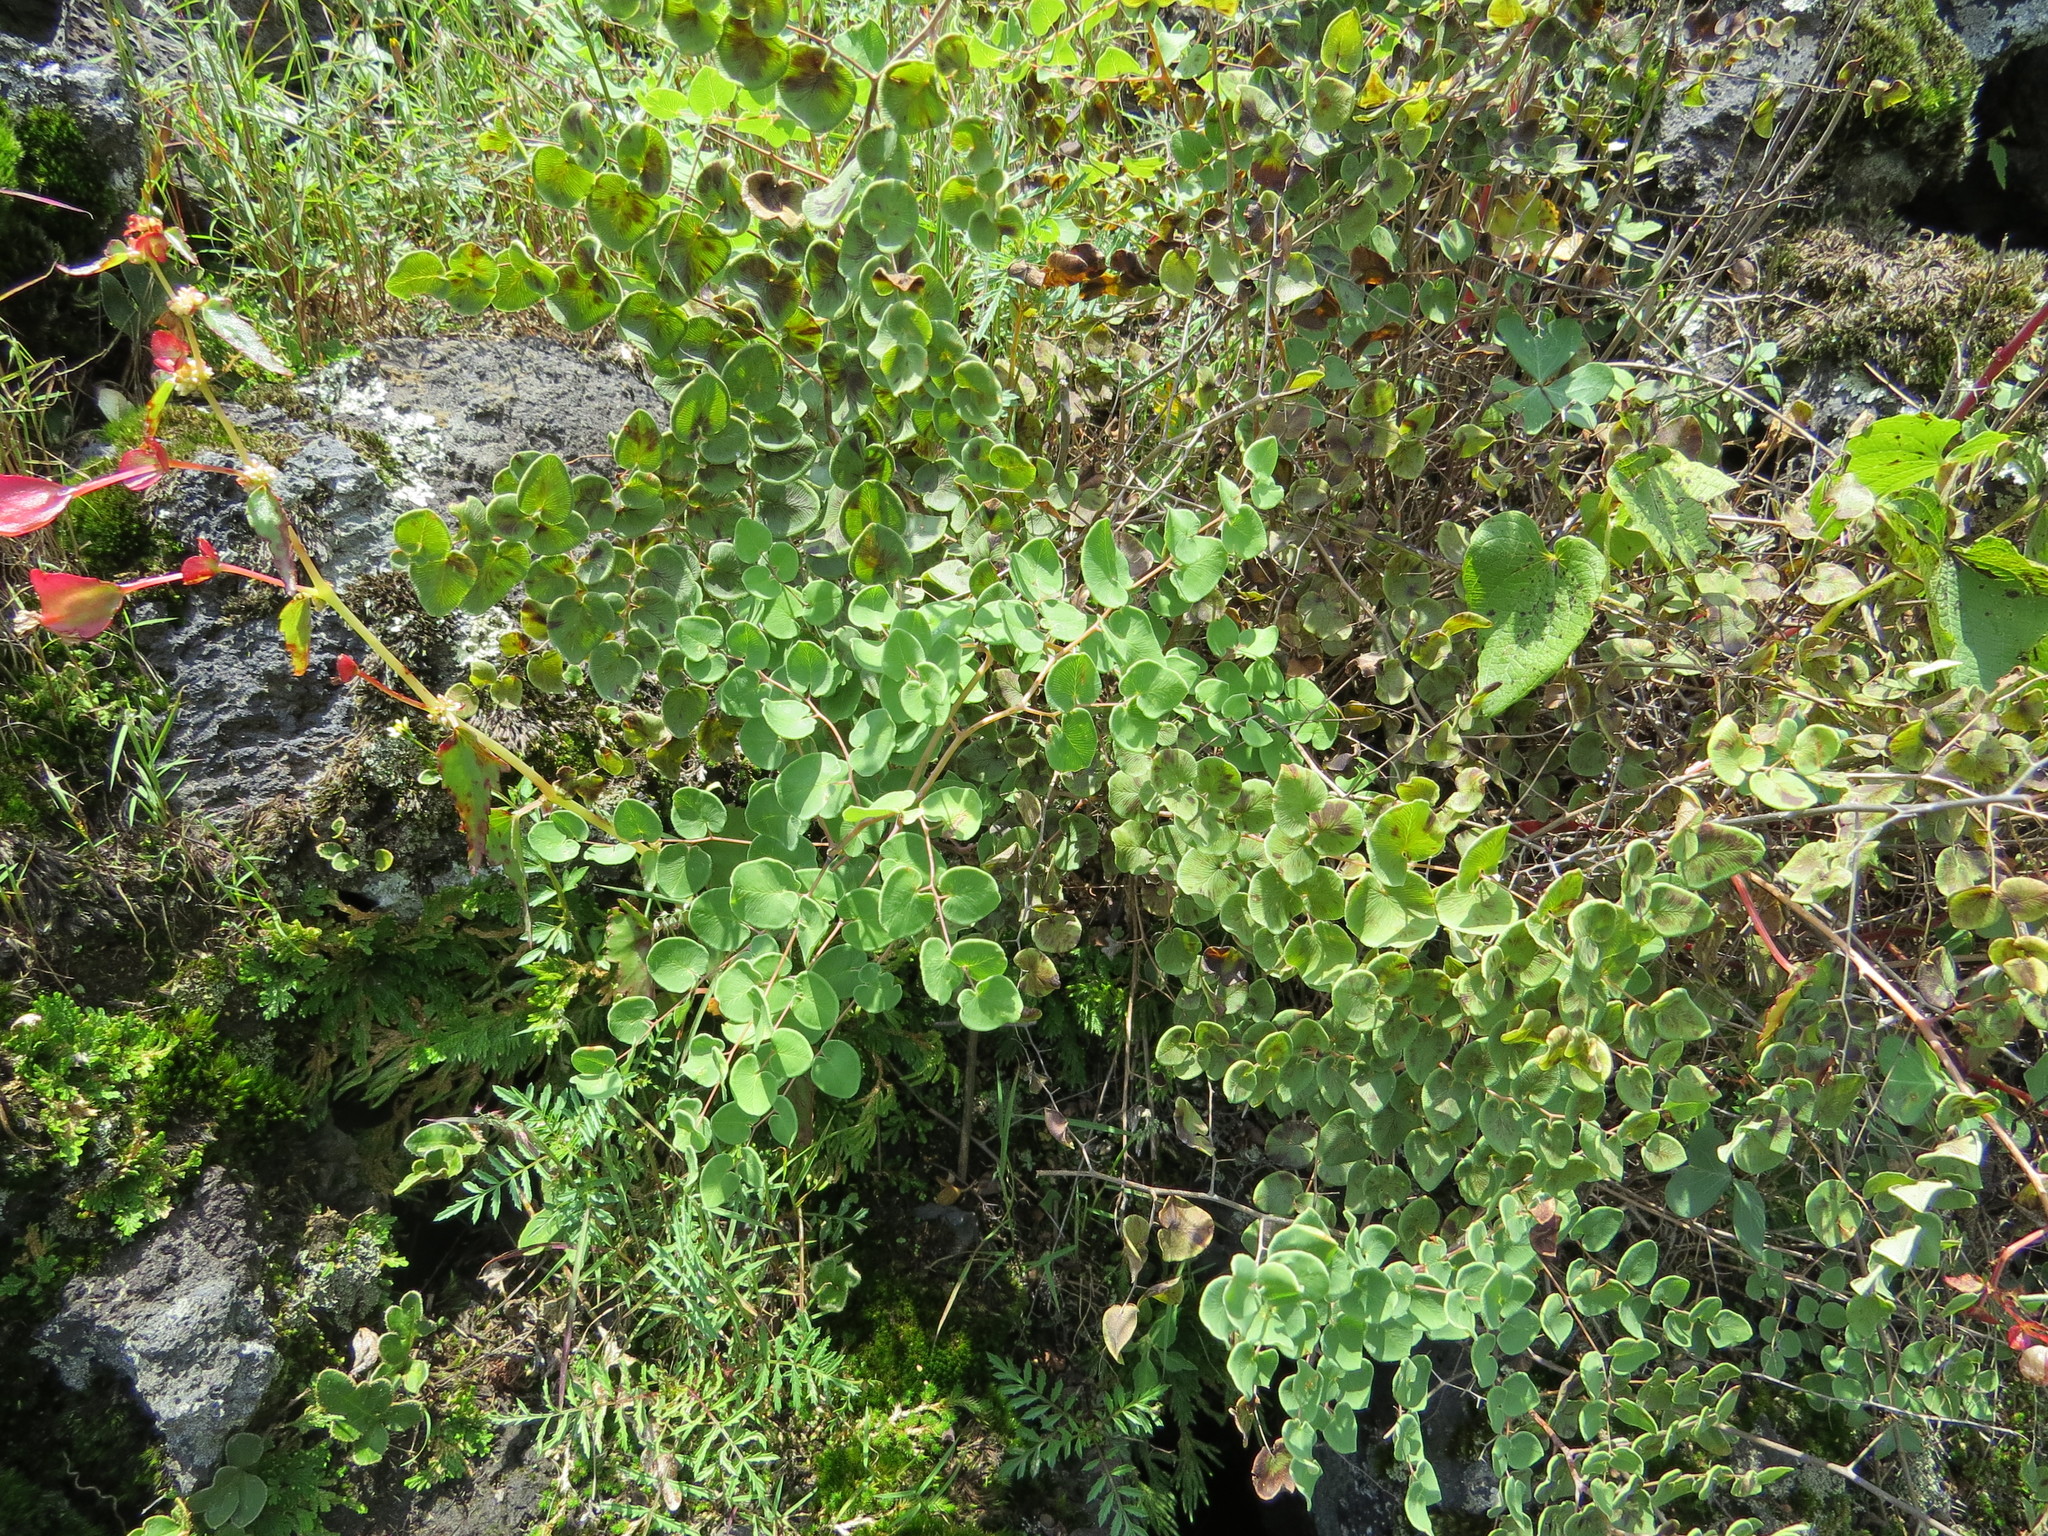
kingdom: Plantae
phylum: Tracheophyta
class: Polypodiopsida
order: Polypodiales
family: Pteridaceae
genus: Pellaea
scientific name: Pellaea cordifolia
